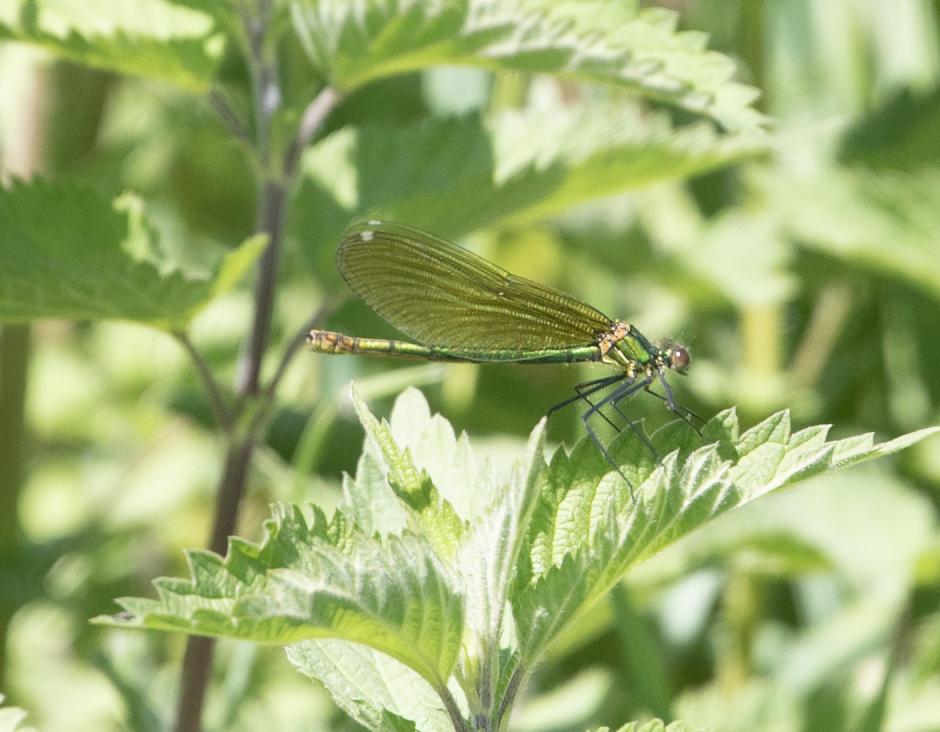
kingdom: Animalia
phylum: Arthropoda
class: Insecta
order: Odonata
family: Calopterygidae
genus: Calopteryx
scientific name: Calopteryx splendens
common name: Banded demoiselle
